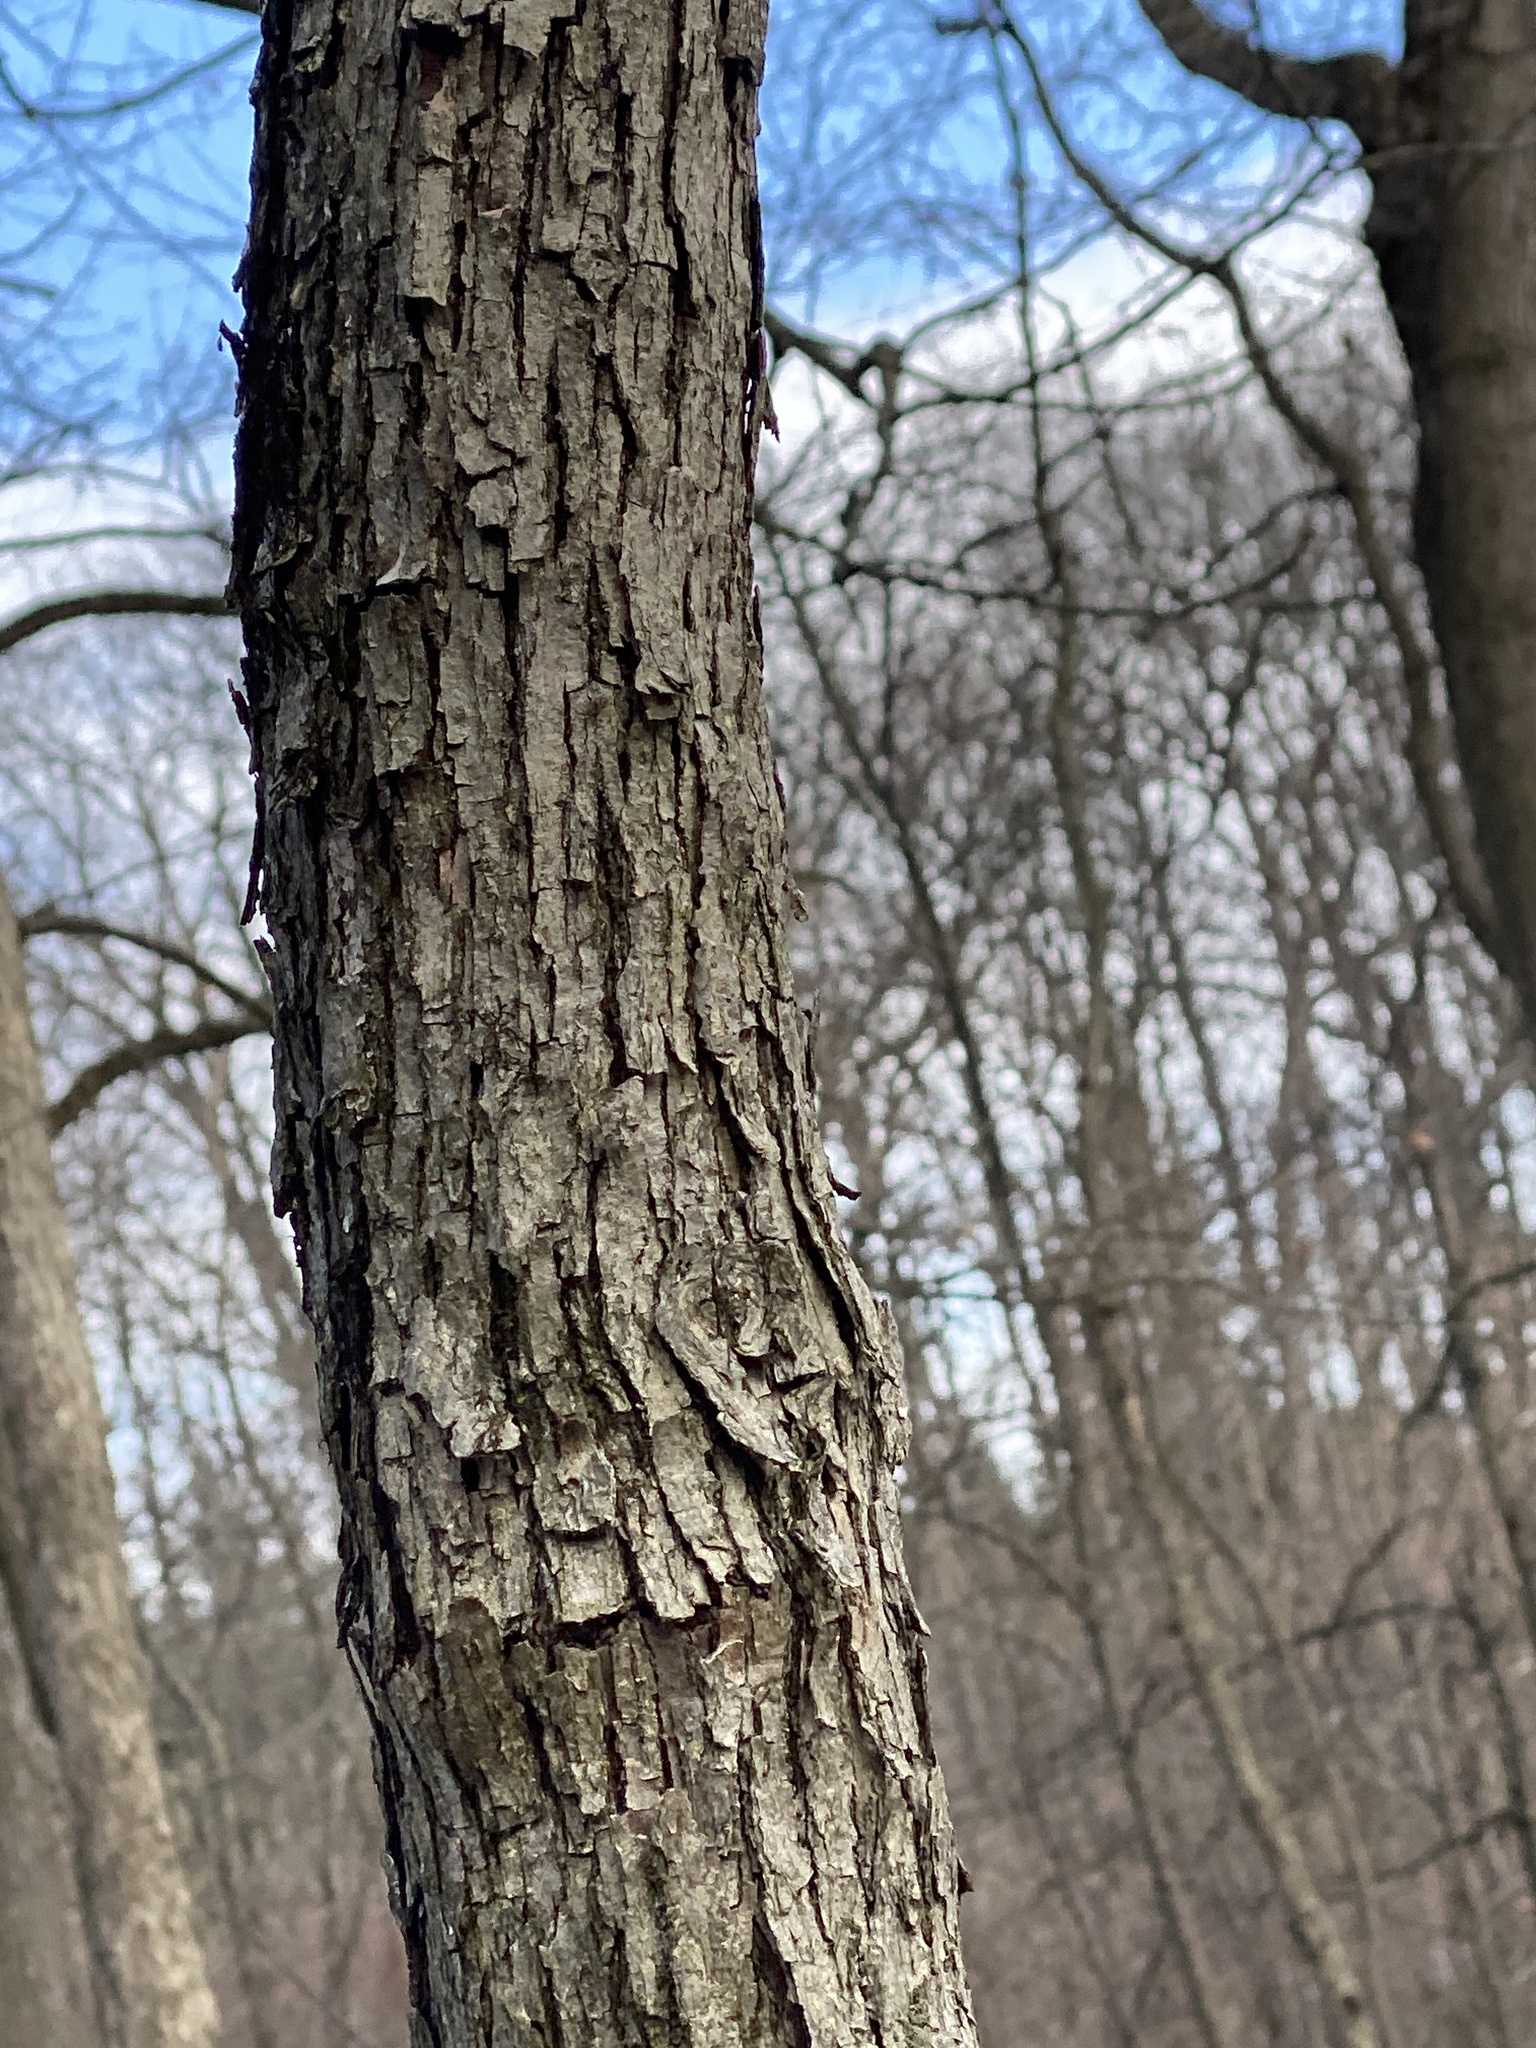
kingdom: Plantae
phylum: Tracheophyta
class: Magnoliopsida
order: Fagales
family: Fagaceae
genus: Quercus
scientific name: Quercus alba
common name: White oak
